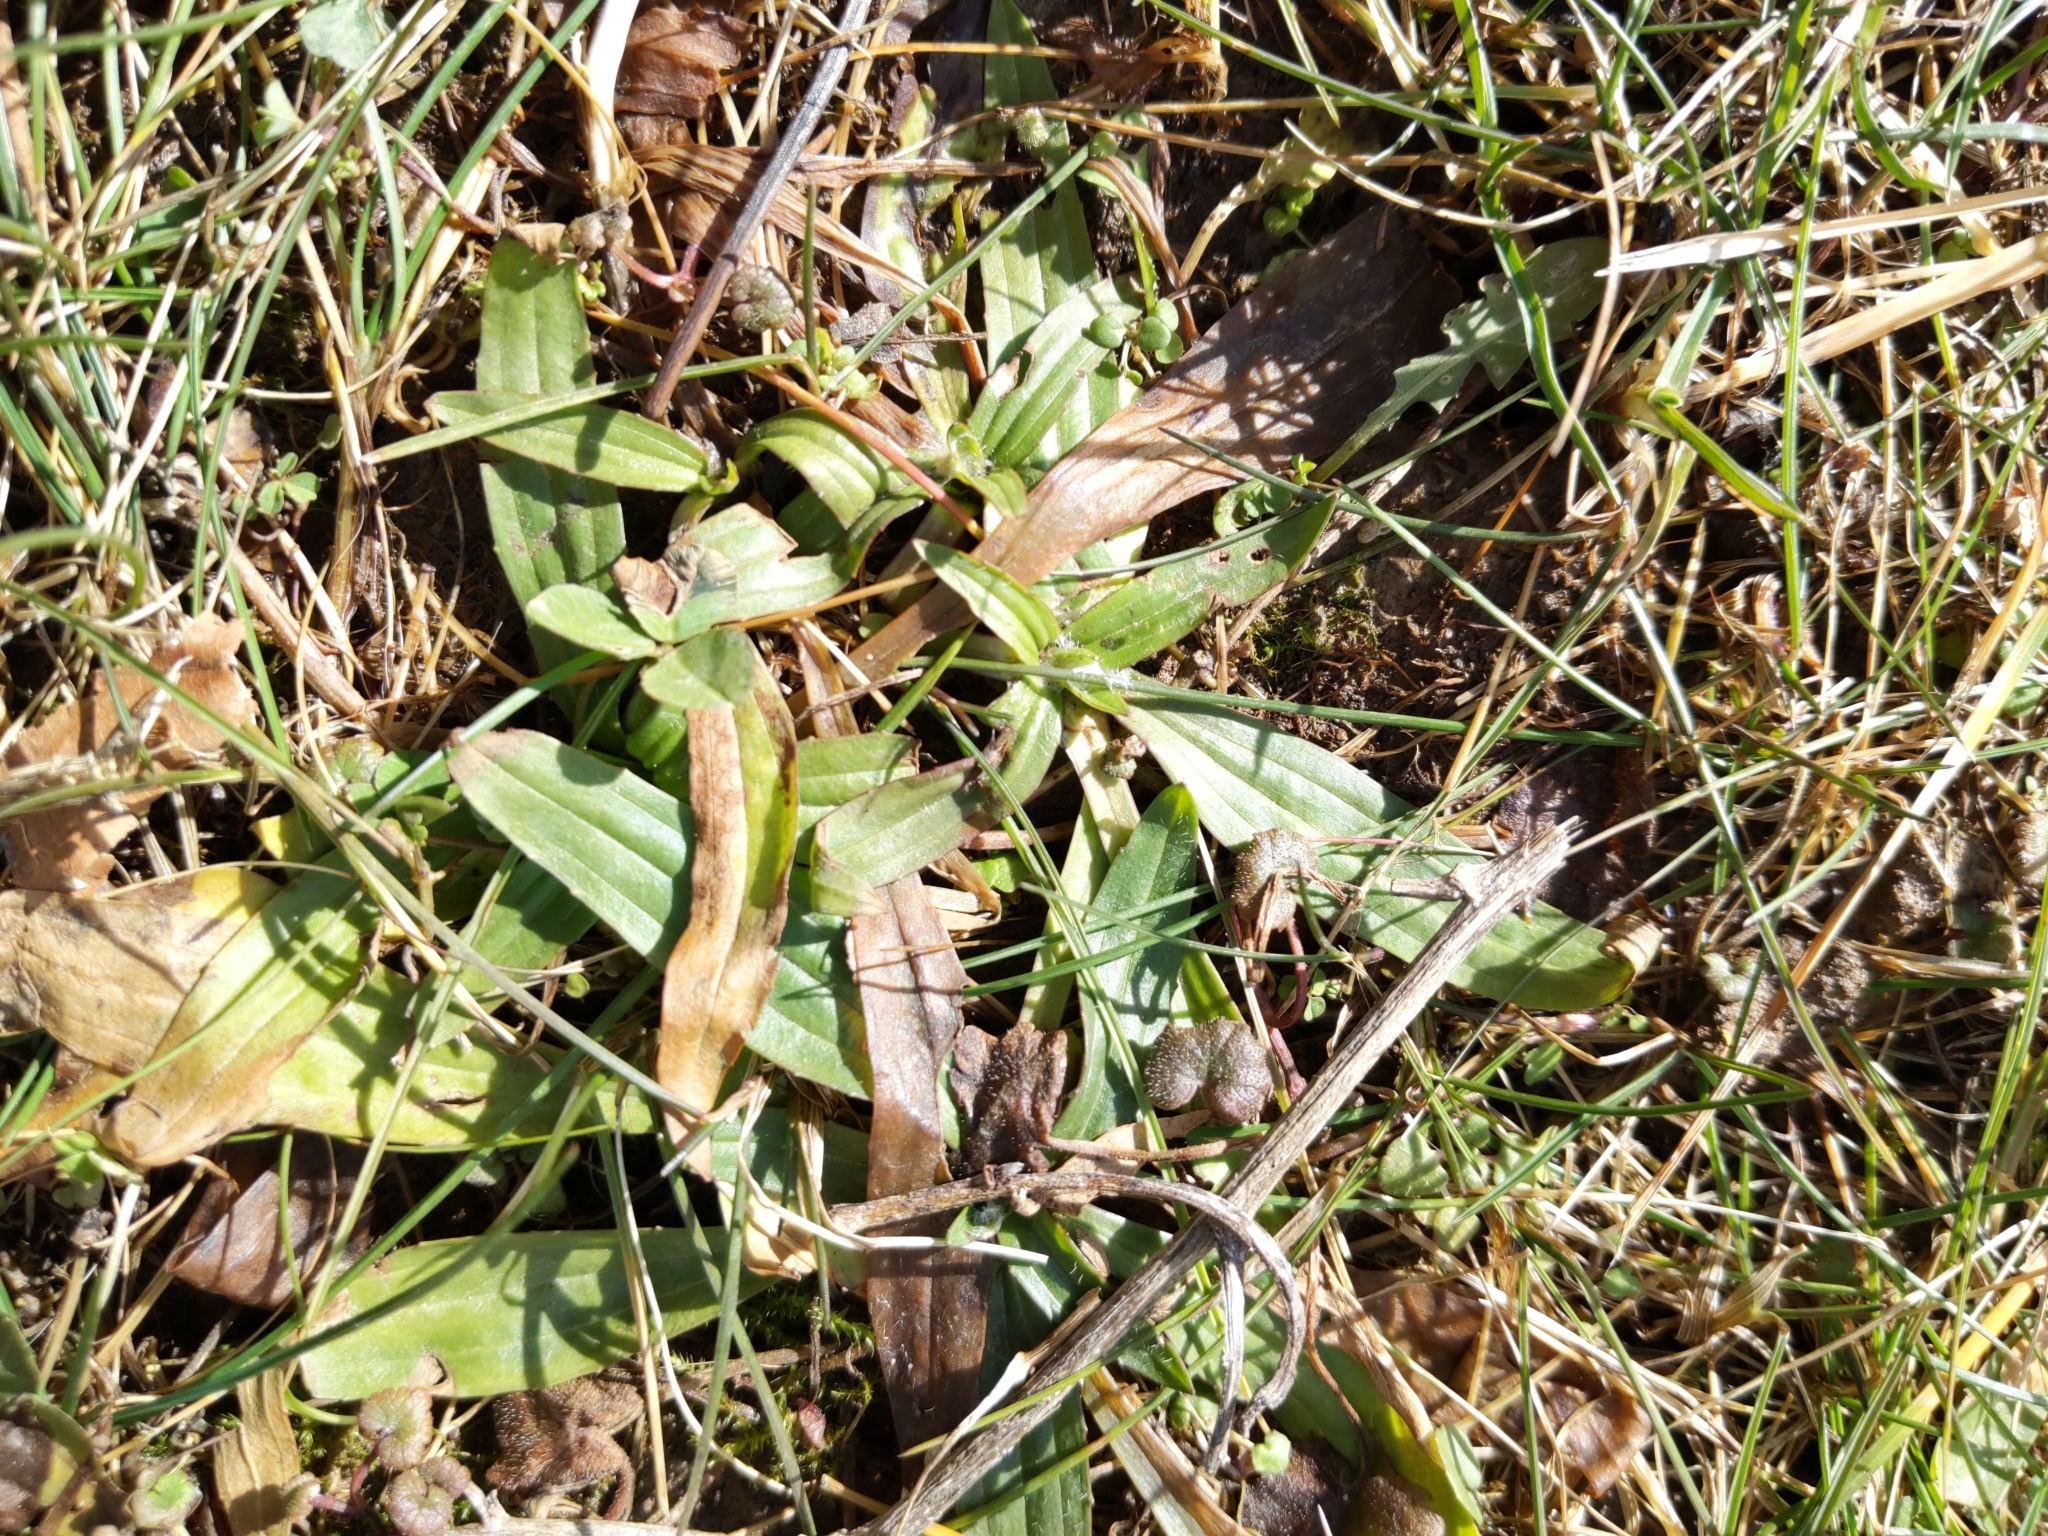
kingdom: Plantae
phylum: Tracheophyta
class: Magnoliopsida
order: Lamiales
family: Plantaginaceae
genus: Plantago
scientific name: Plantago lanceolata
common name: Ribwort plantain
